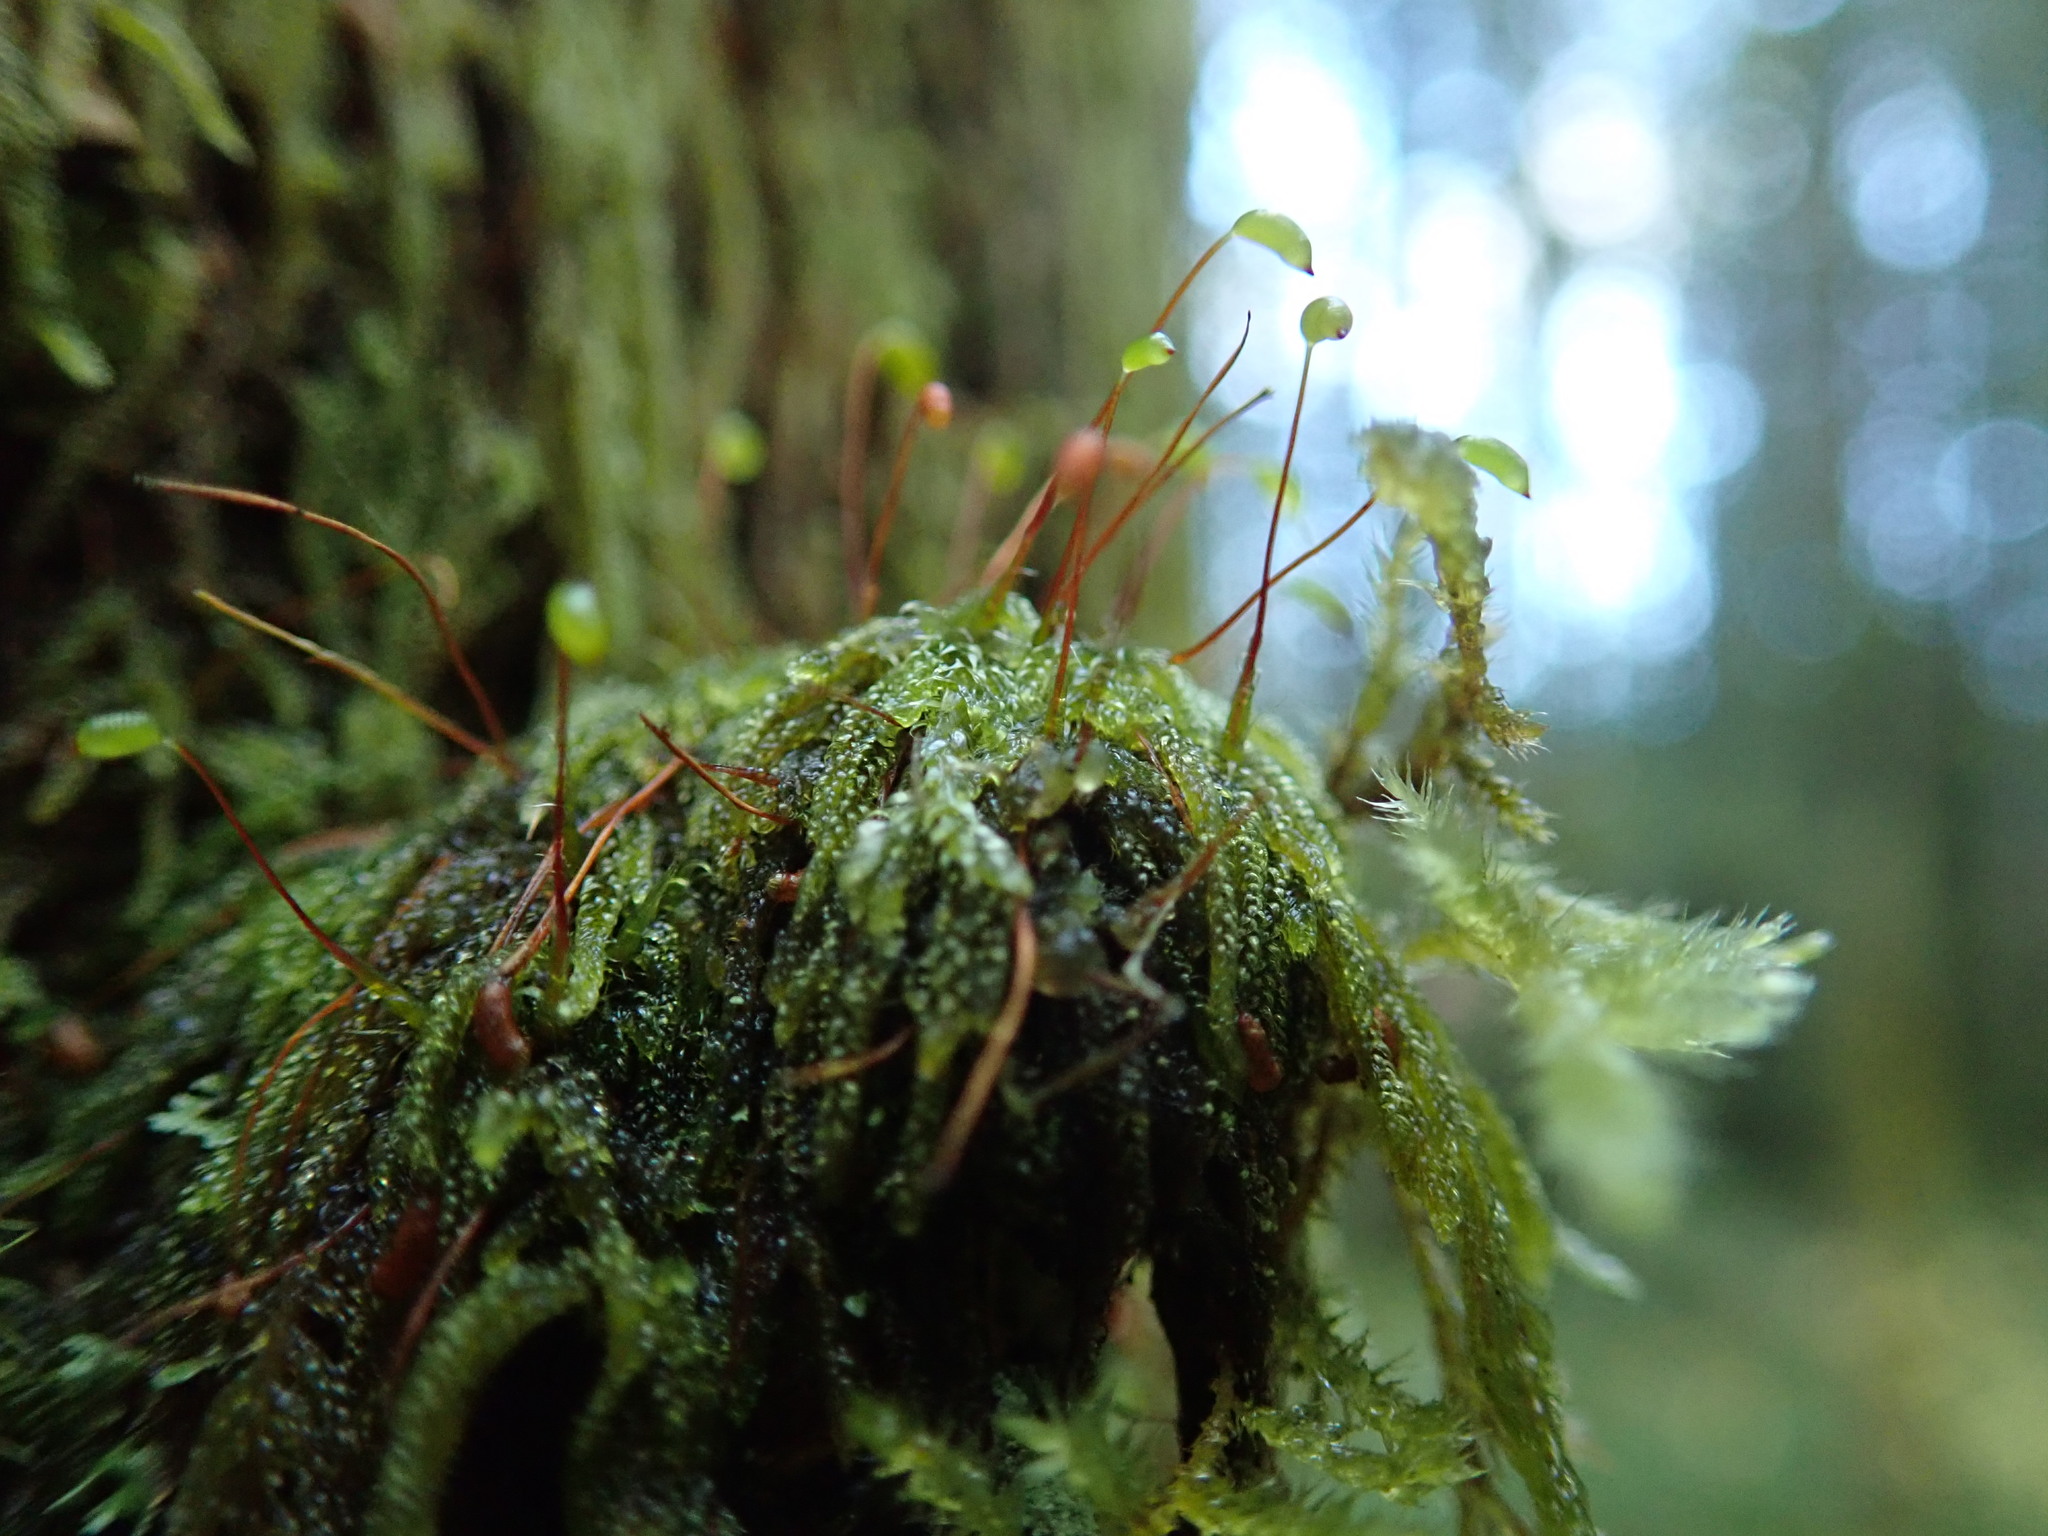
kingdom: Plantae
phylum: Bryophyta
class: Bryopsida
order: Hypnales
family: Pylaisiadelphaceae
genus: Trochophyllohypnum
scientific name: Trochophyllohypnum circinale
